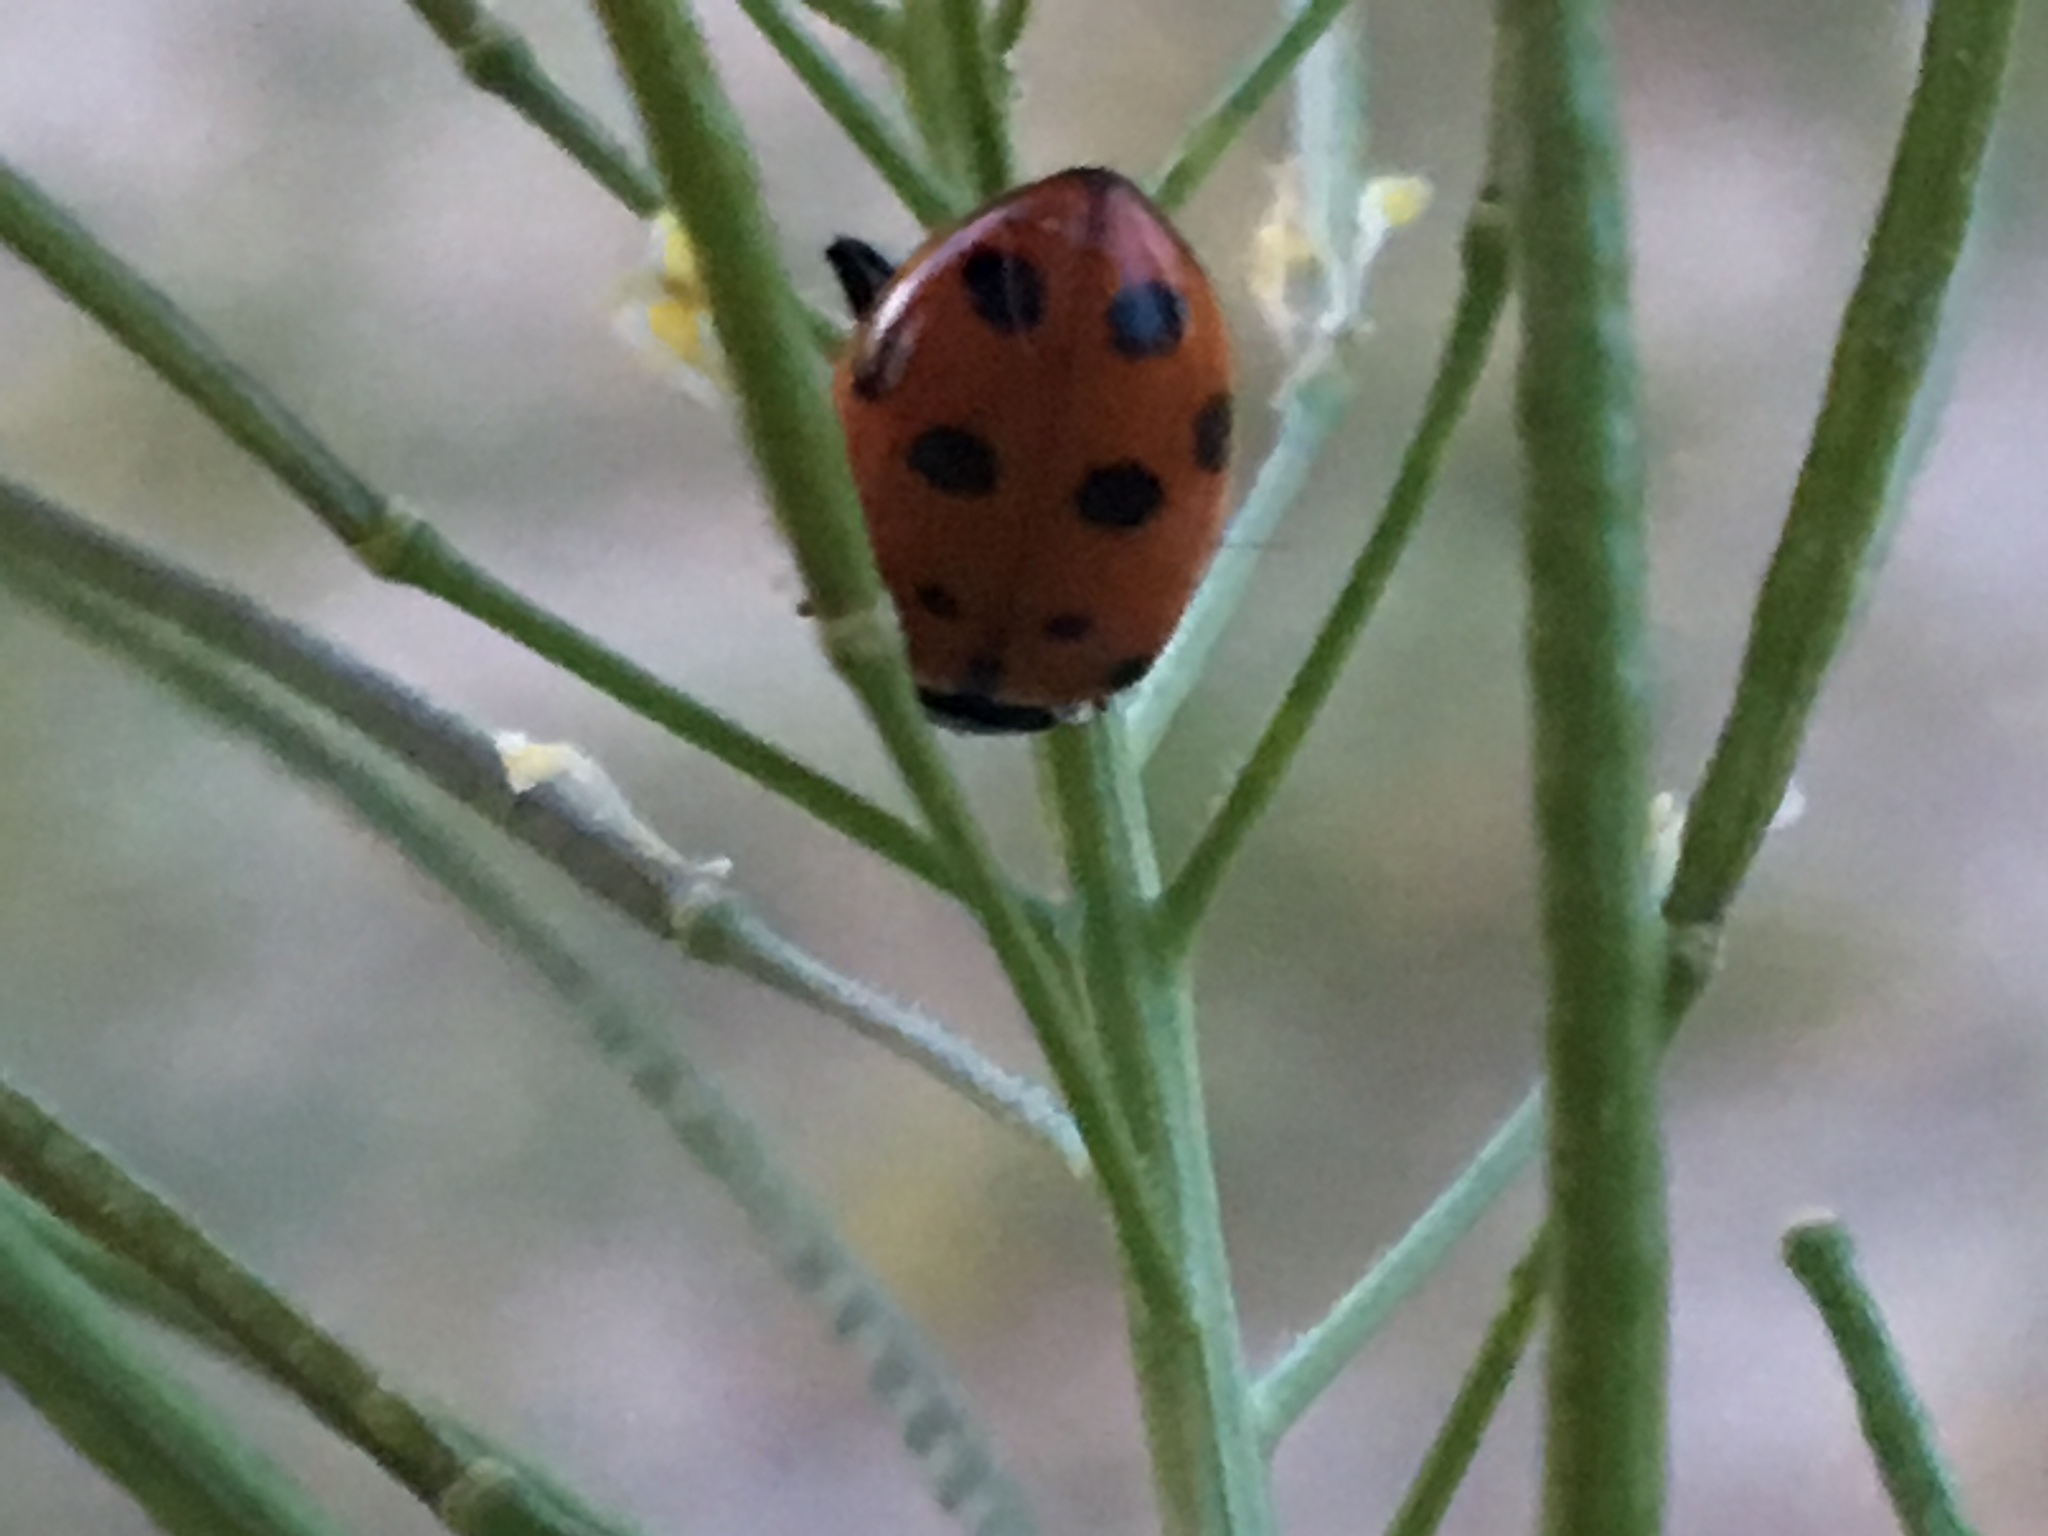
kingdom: Animalia
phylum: Arthropoda
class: Insecta
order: Coleoptera
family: Coccinellidae
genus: Hippodamia
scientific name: Hippodamia convergens
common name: Convergent lady beetle
